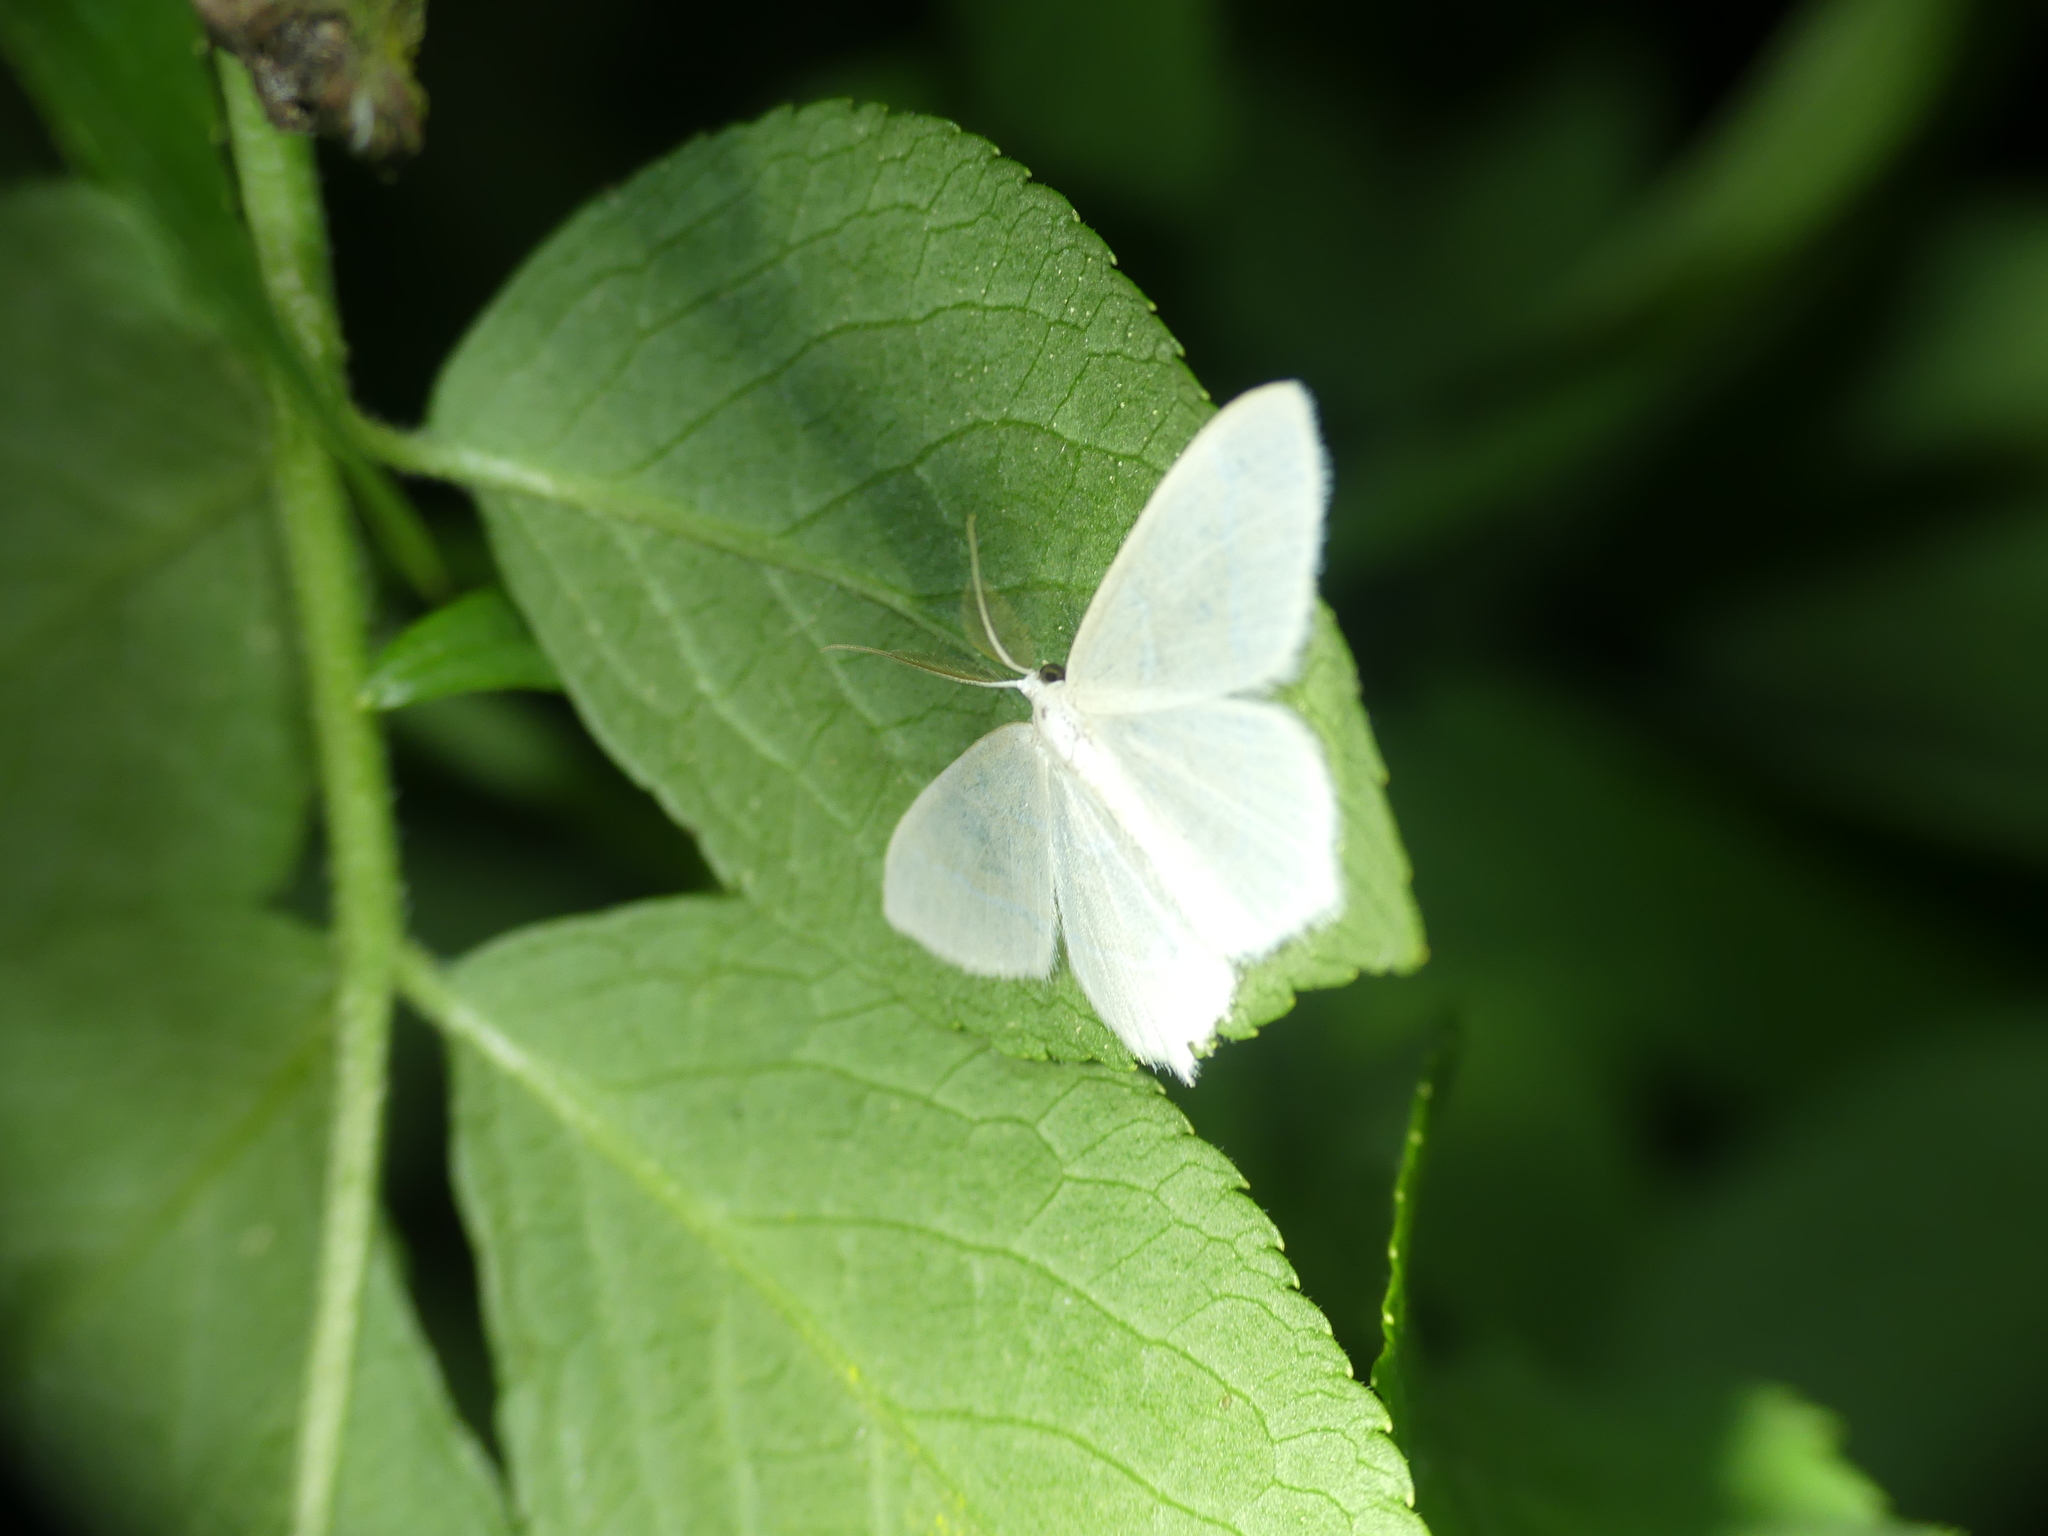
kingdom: Animalia
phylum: Arthropoda
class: Insecta
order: Lepidoptera
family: Geometridae
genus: Jodis
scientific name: Jodis lactearia
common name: Little emerald
